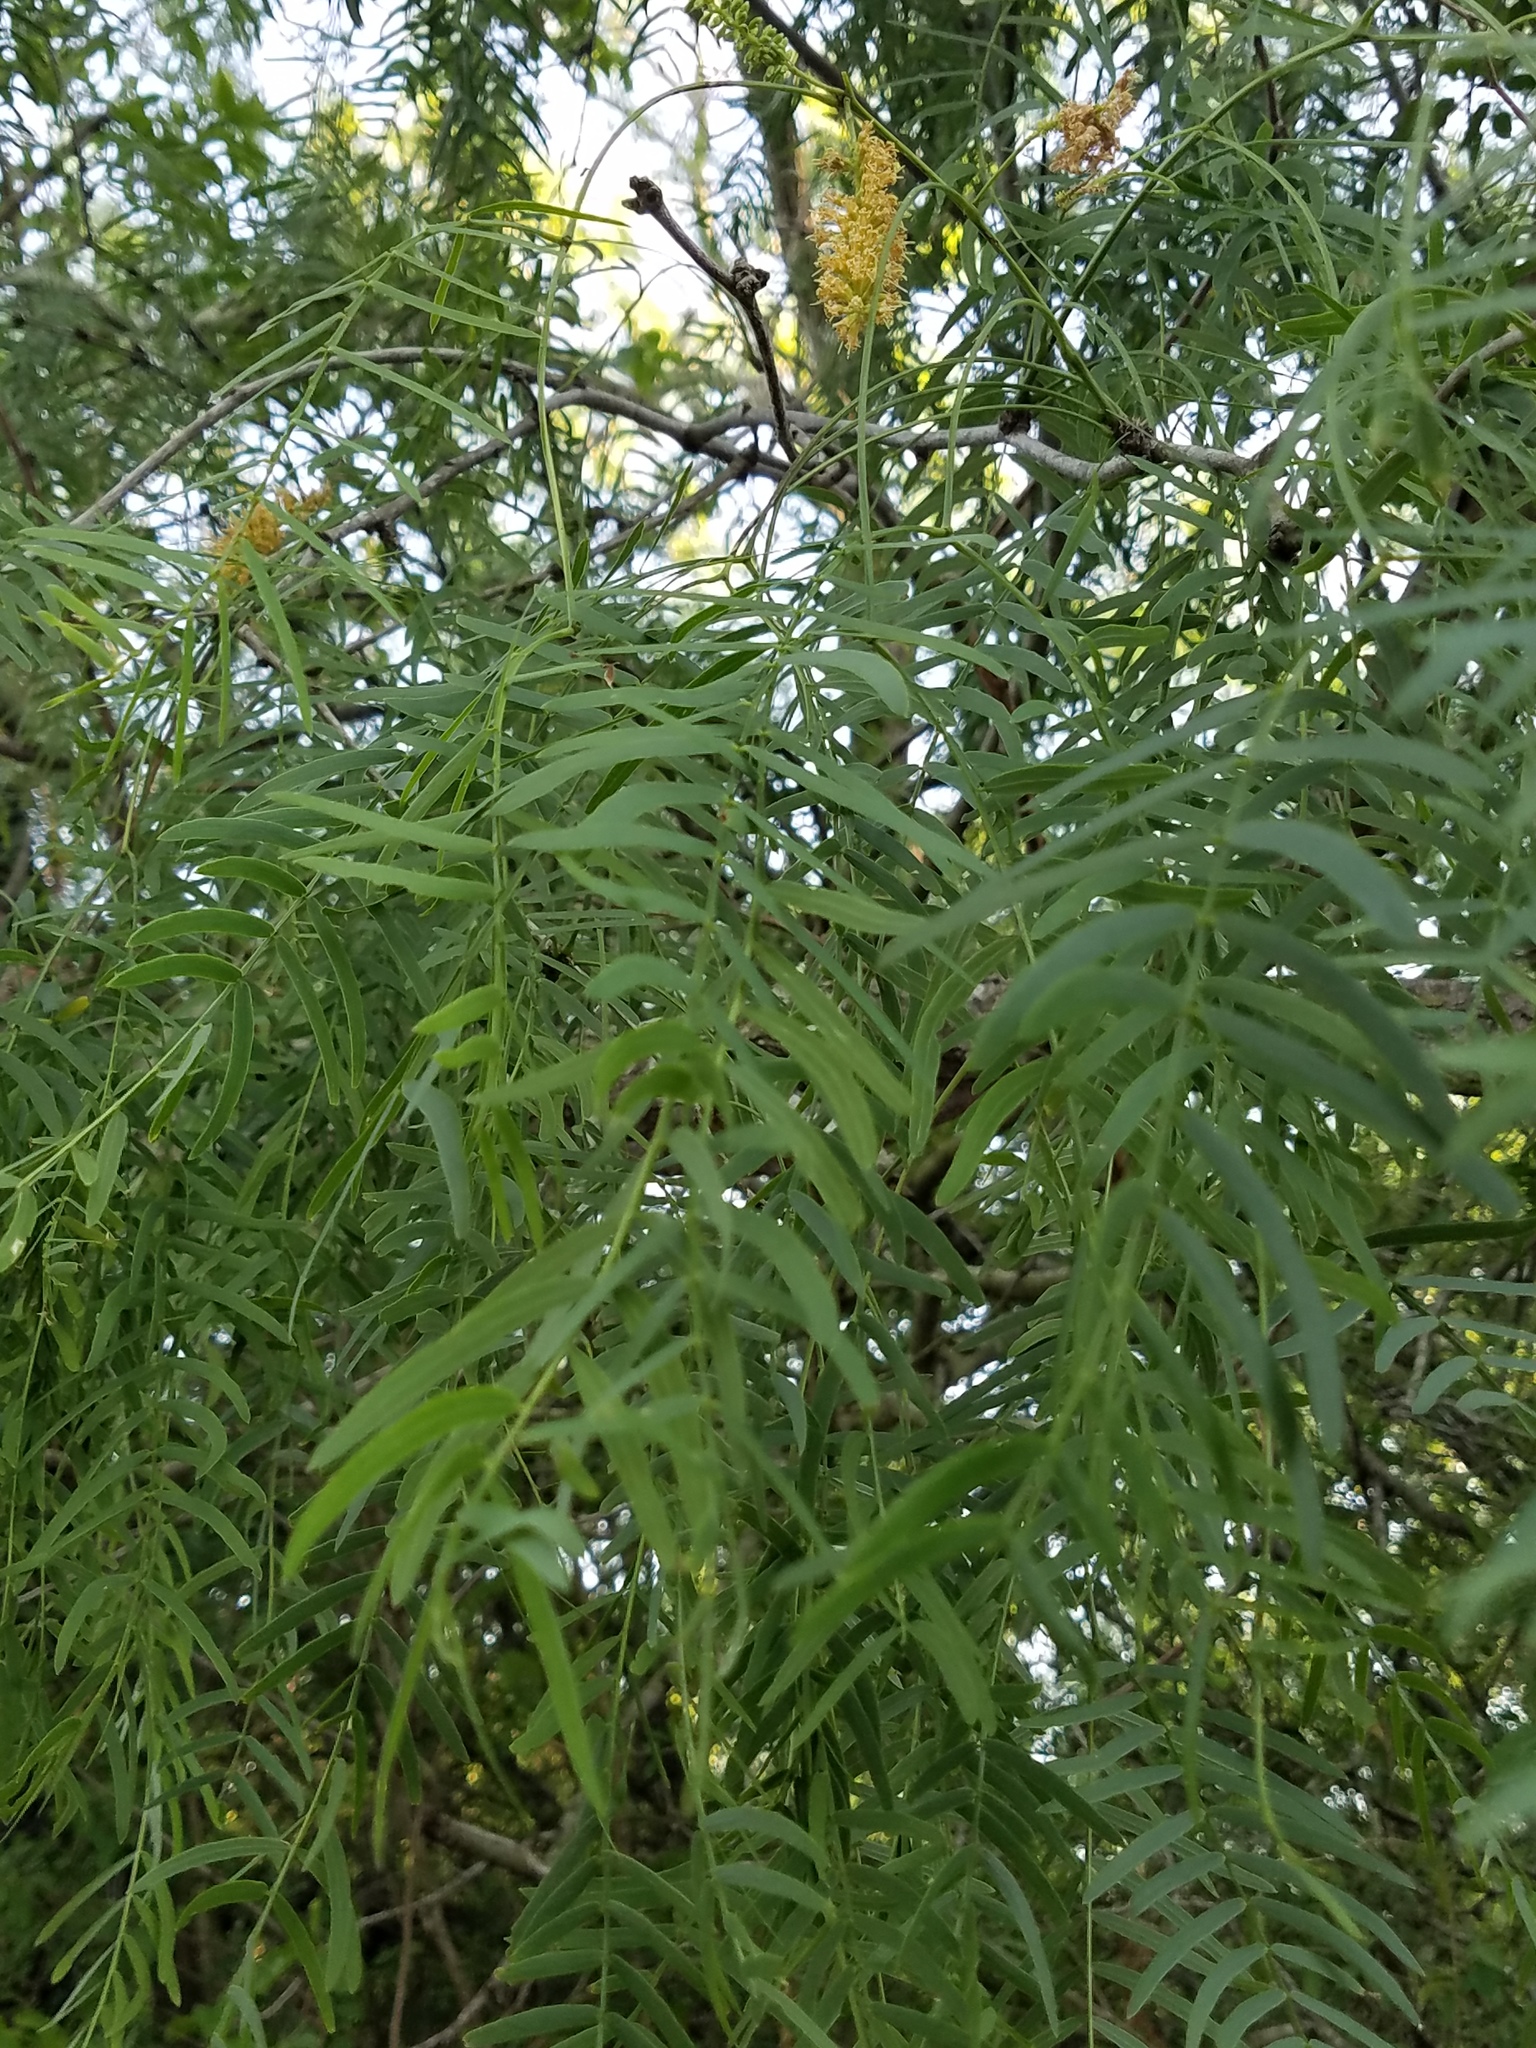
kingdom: Plantae
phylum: Tracheophyta
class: Magnoliopsida
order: Fabales
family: Fabaceae
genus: Prosopis
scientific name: Prosopis glandulosa
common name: Honey mesquite
